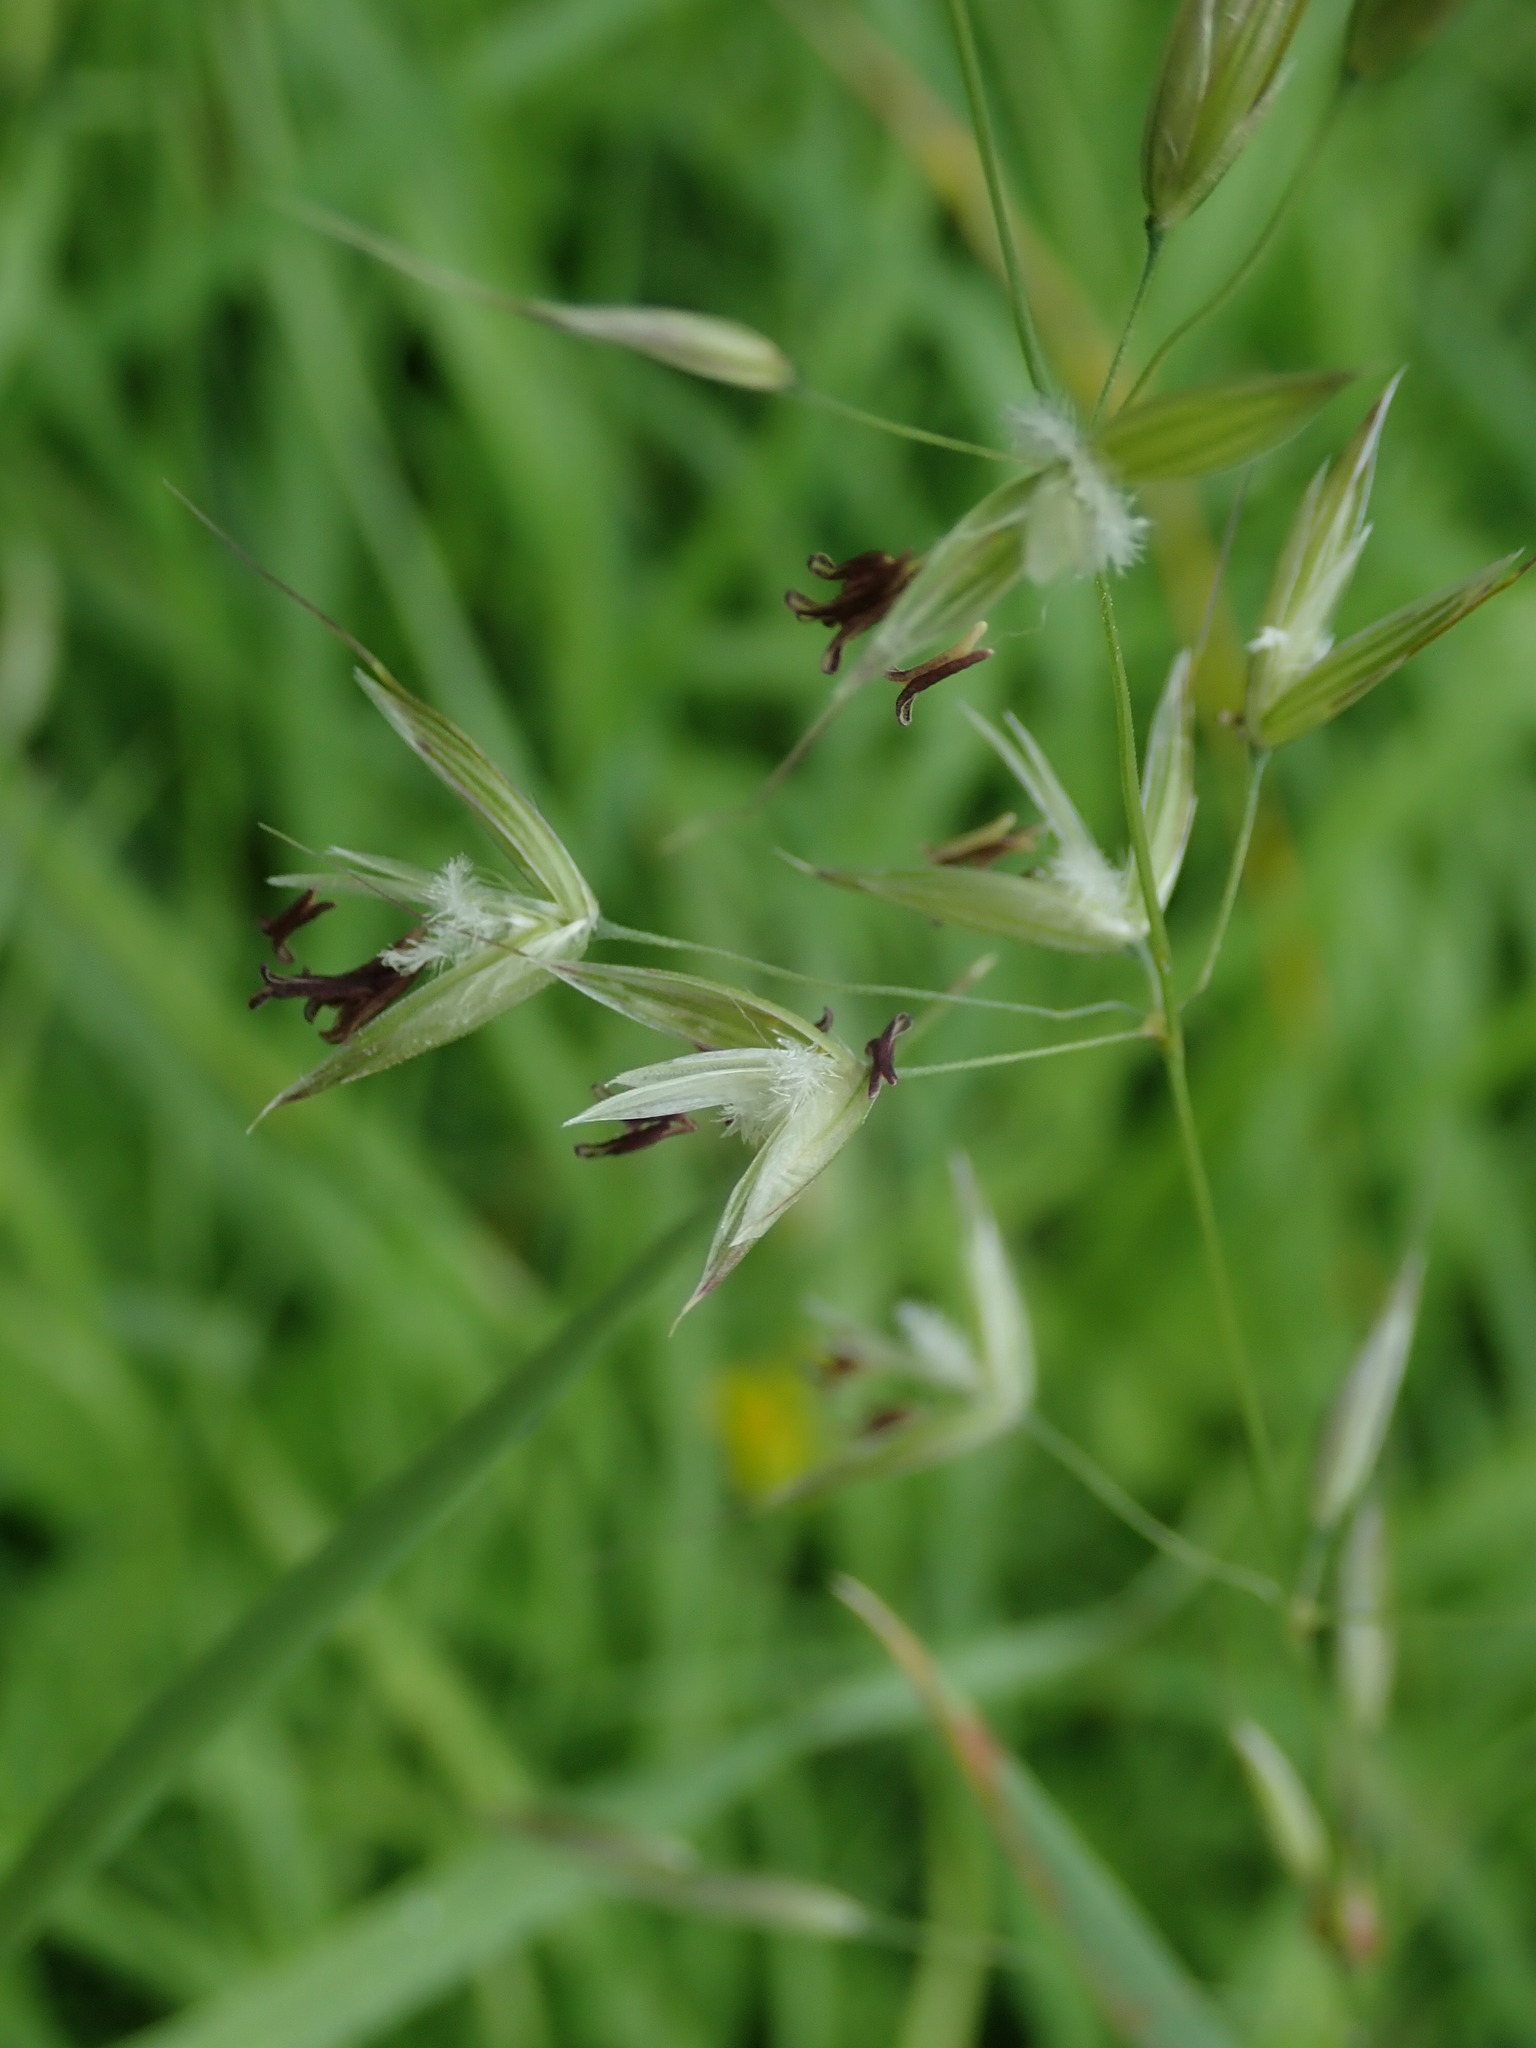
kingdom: Plantae
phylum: Tracheophyta
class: Liliopsida
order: Poales
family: Poaceae
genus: Arrhenatherum
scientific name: Arrhenatherum elatius
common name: Tall oatgrass
